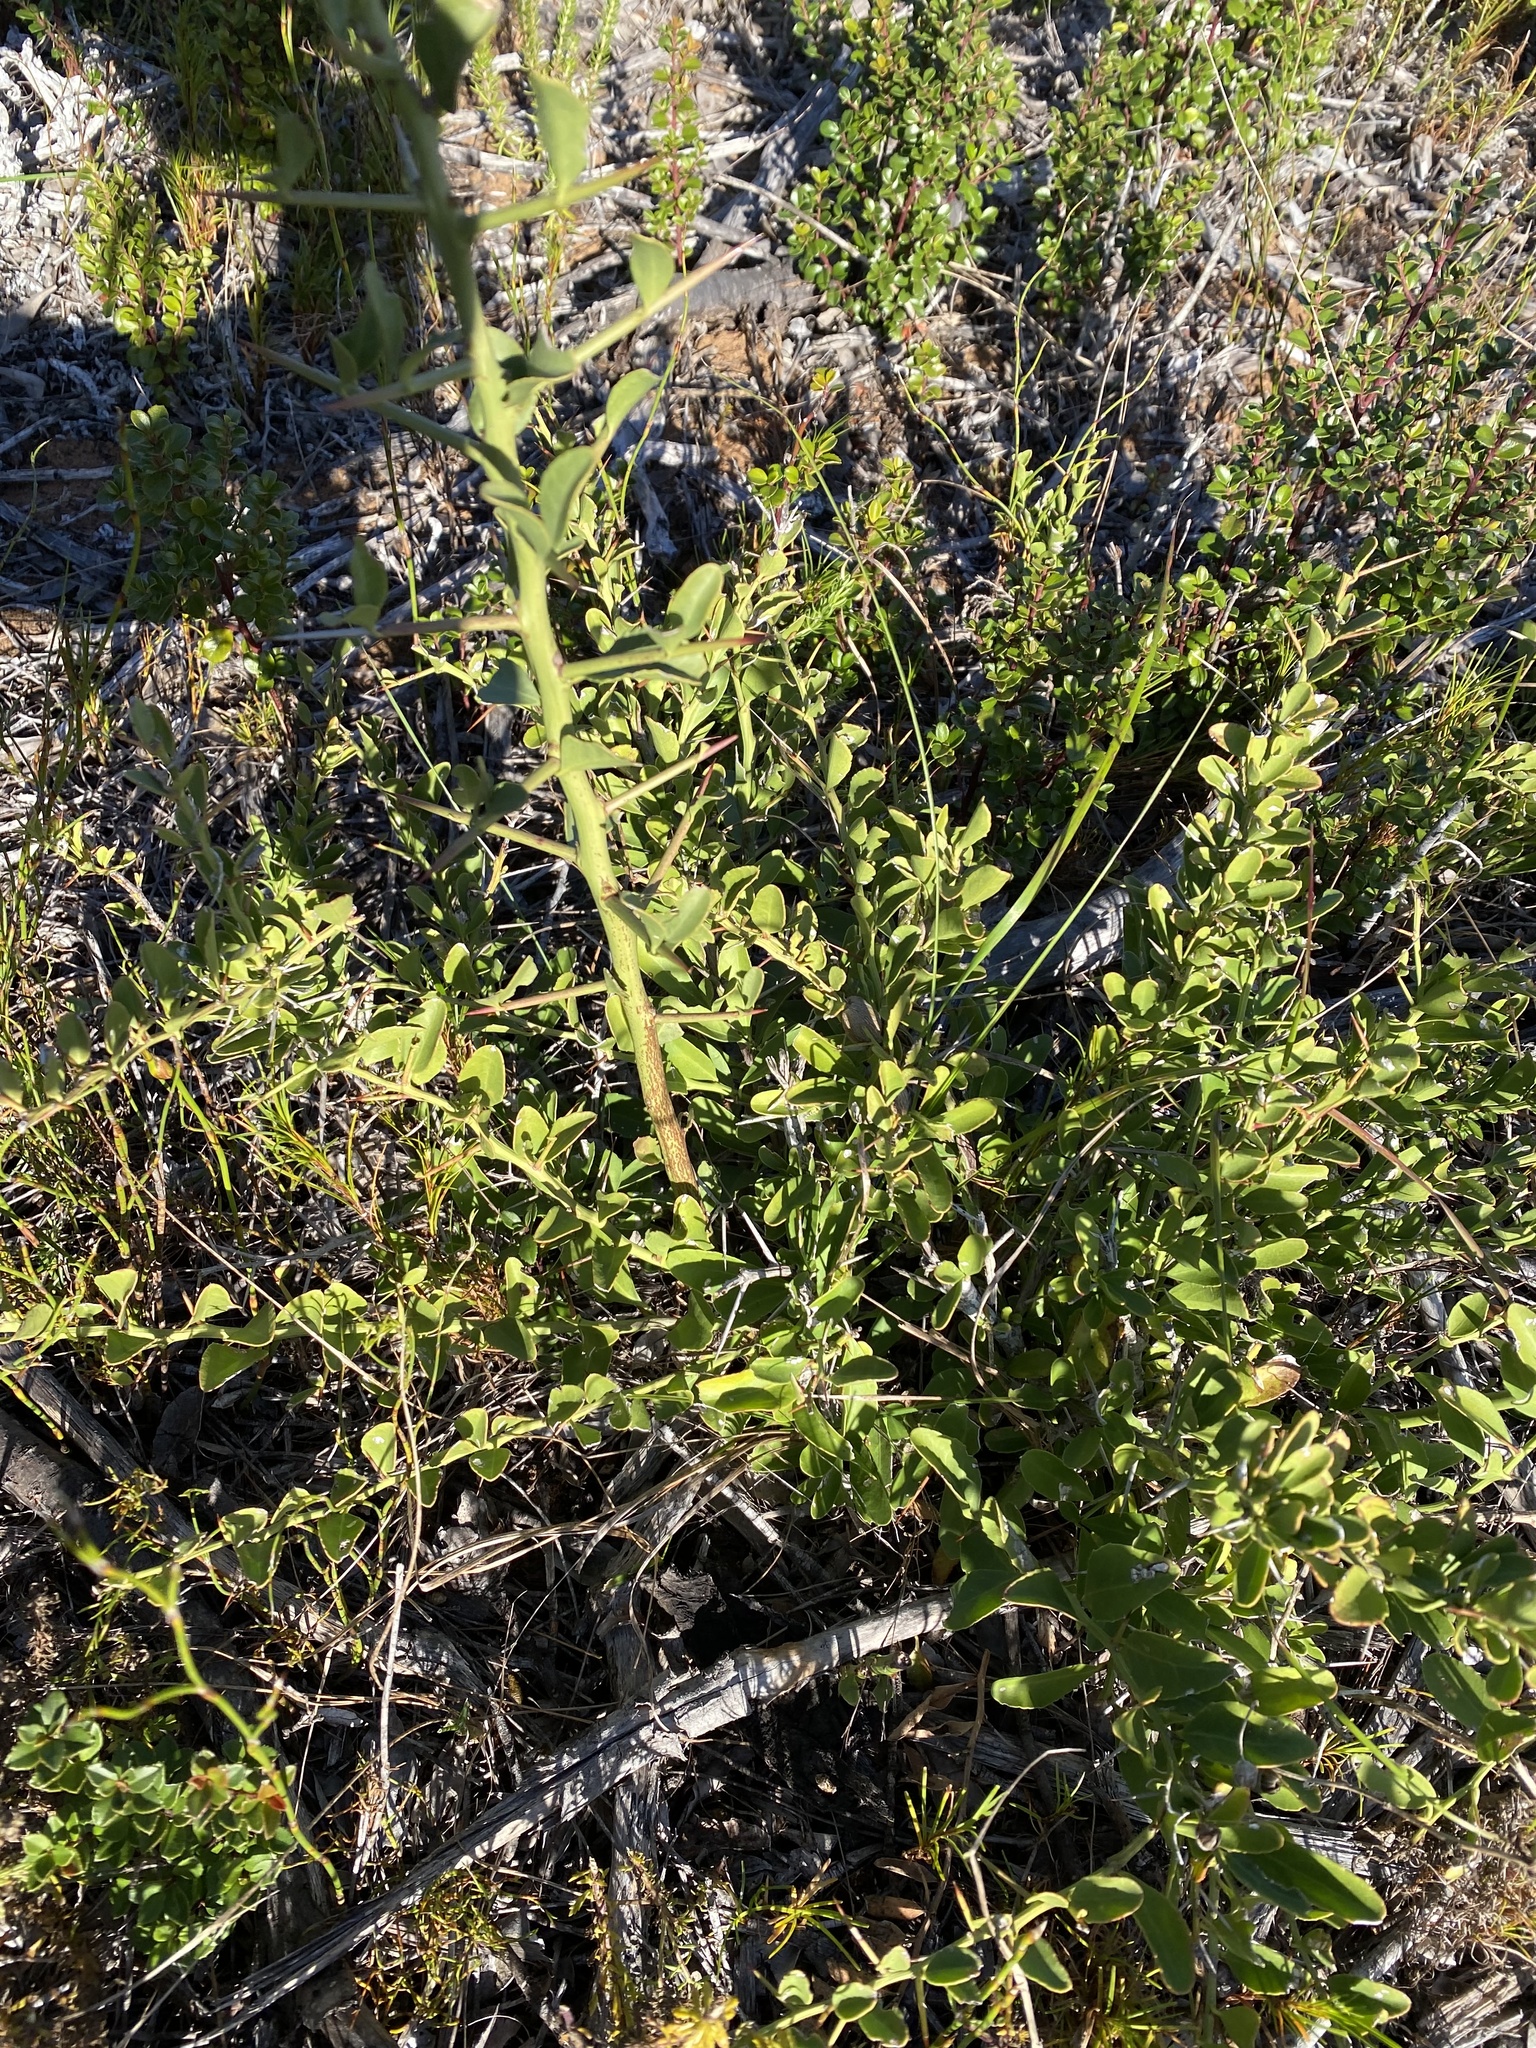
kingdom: Plantae
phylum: Tracheophyta
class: Magnoliopsida
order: Celastrales
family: Celastraceae
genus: Gymnosporia
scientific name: Gymnosporia buxifolia
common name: Common spike-thorn
